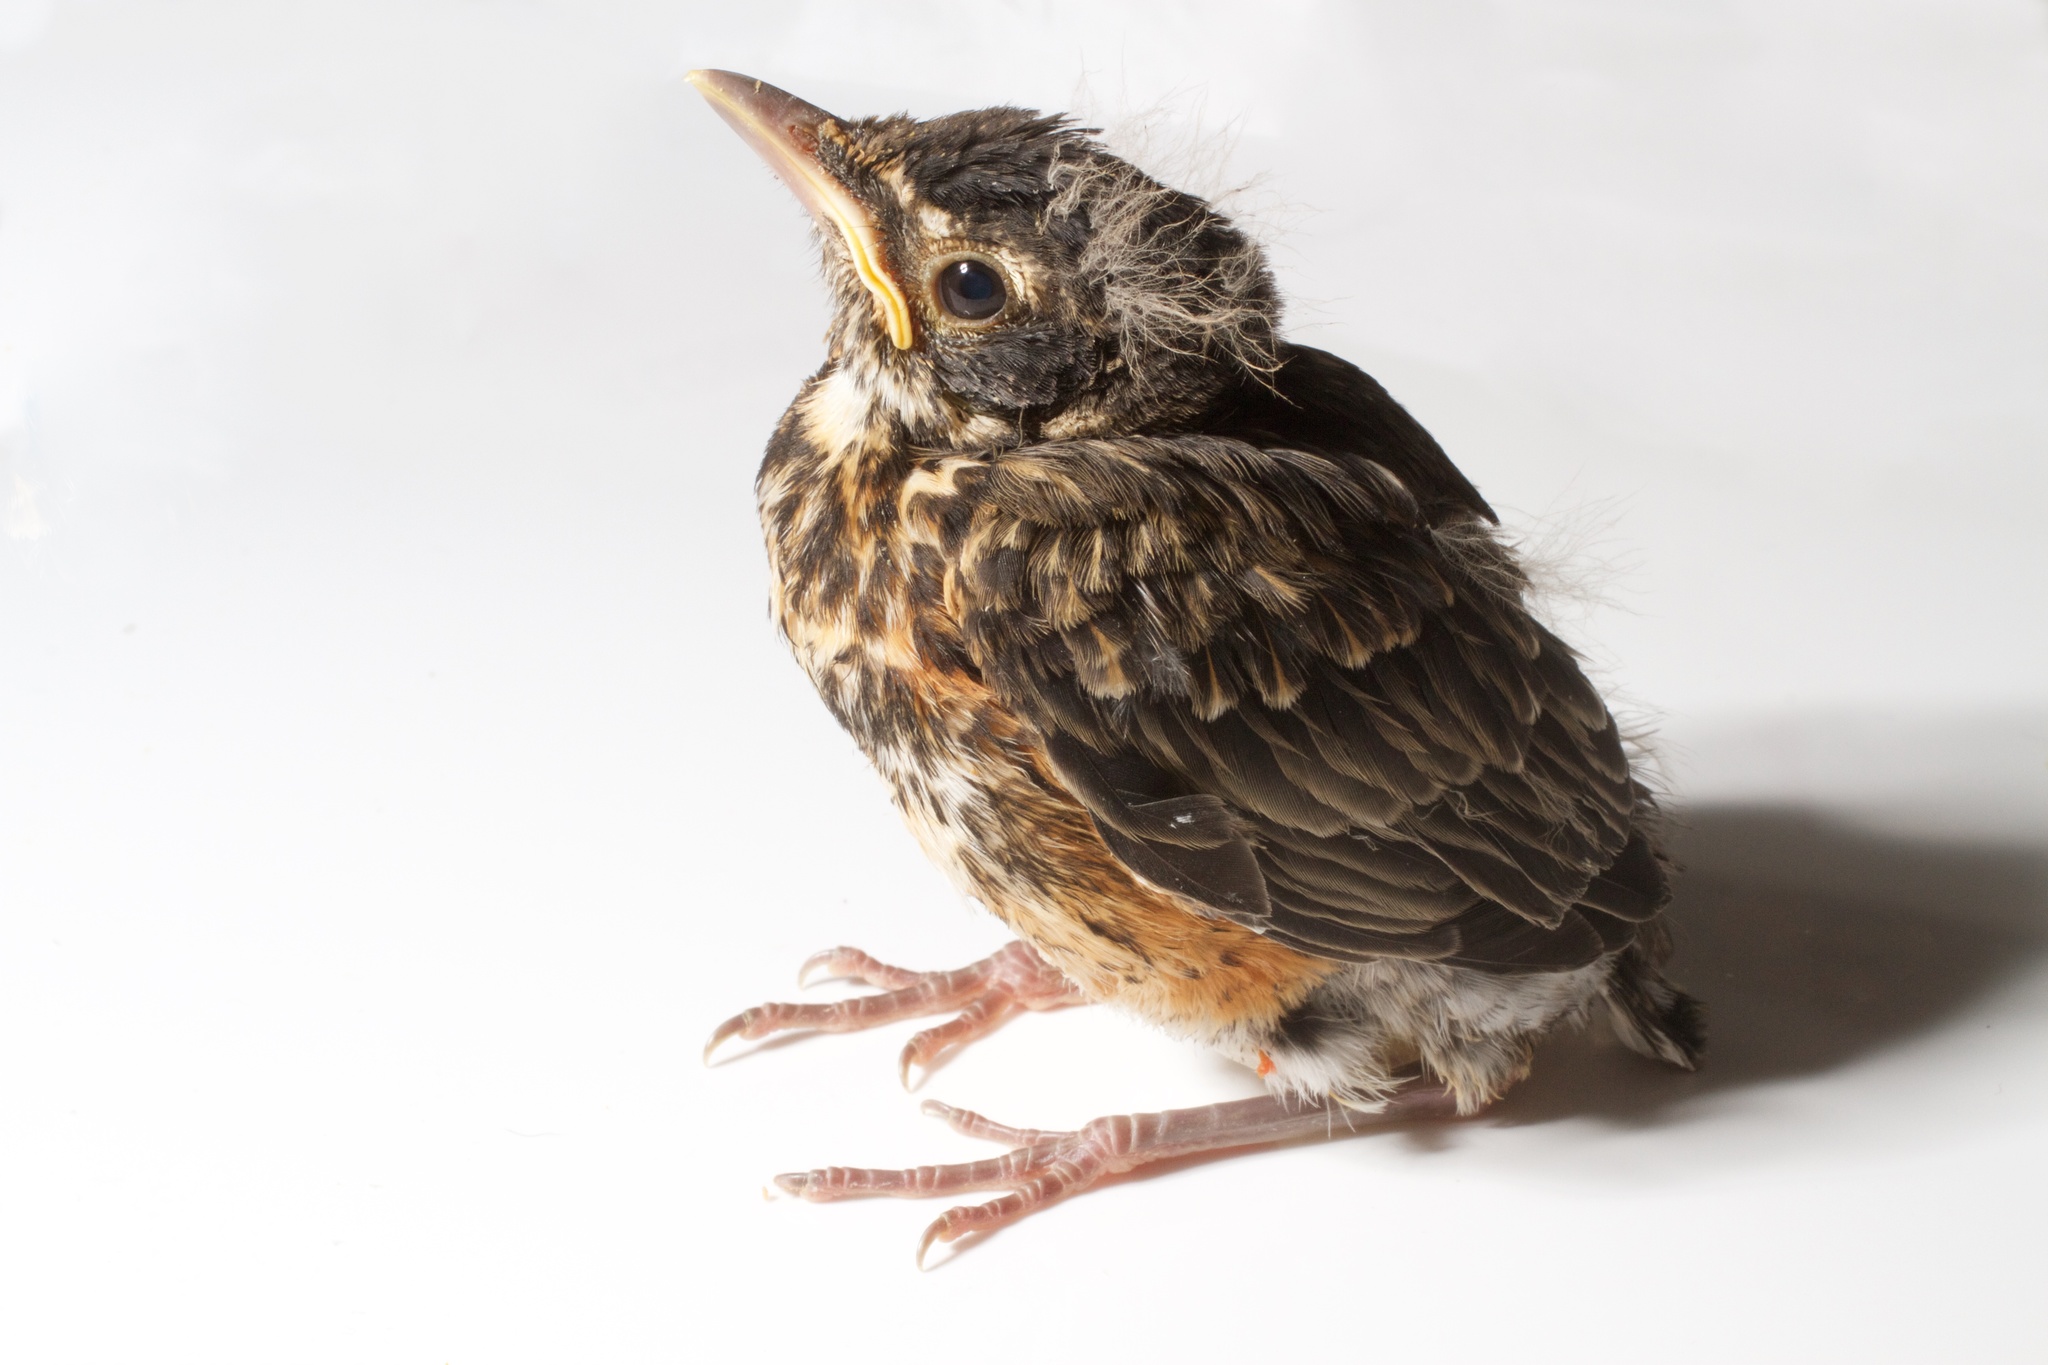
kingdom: Animalia
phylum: Chordata
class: Aves
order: Passeriformes
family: Turdidae
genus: Turdus
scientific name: Turdus migratorius
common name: American robin
